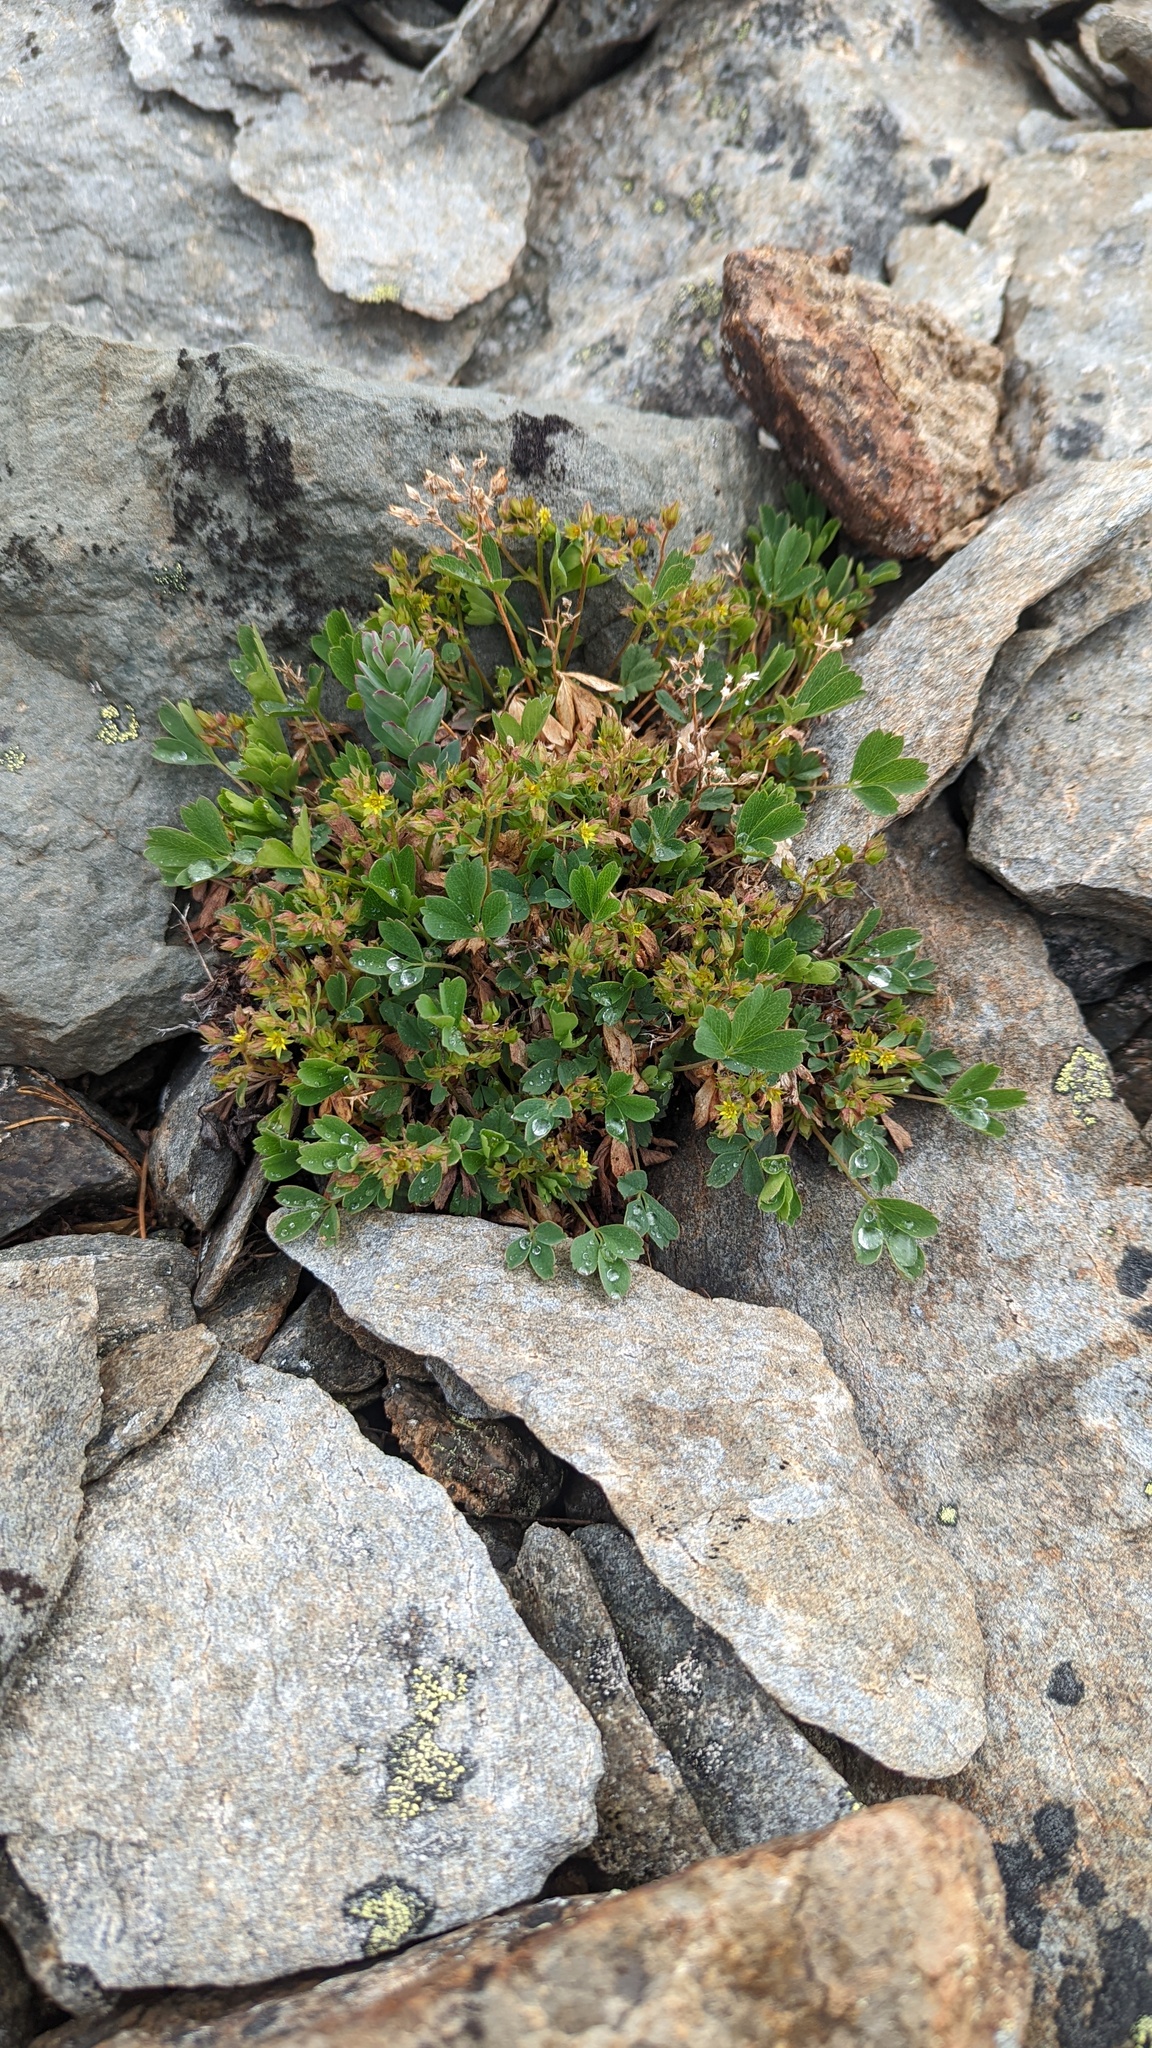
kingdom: Plantae
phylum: Tracheophyta
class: Magnoliopsida
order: Rosales
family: Rosaceae
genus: Sibbaldia
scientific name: Sibbaldia procumbens
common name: Creeping sibbaldia
